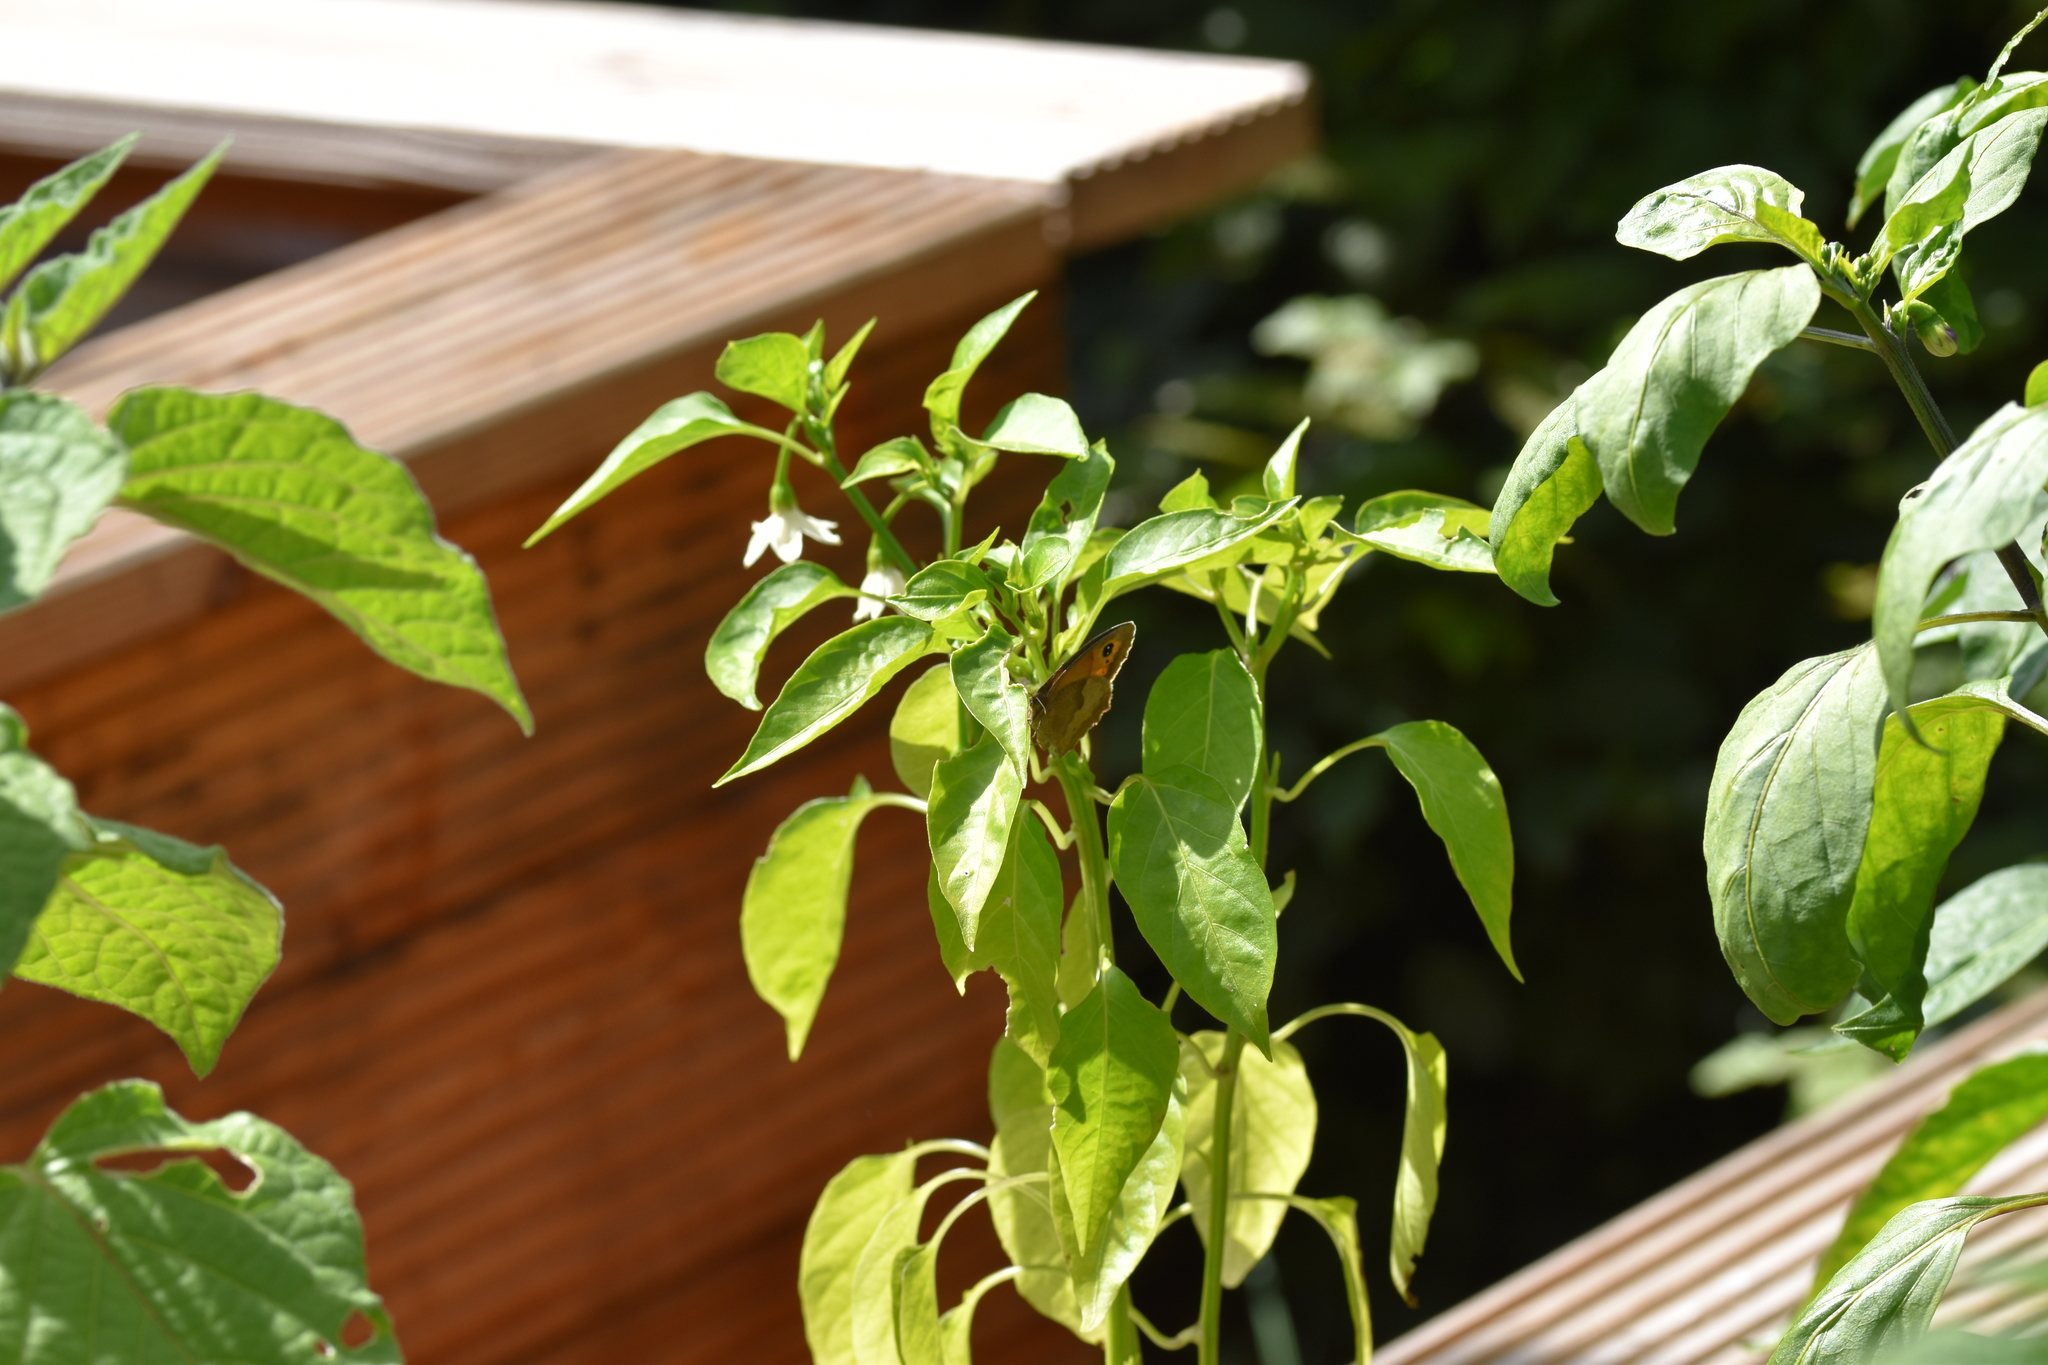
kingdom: Animalia
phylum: Arthropoda
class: Insecta
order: Lepidoptera
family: Nymphalidae
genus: Maniola
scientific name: Maniola jurtina
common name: Meadow brown
